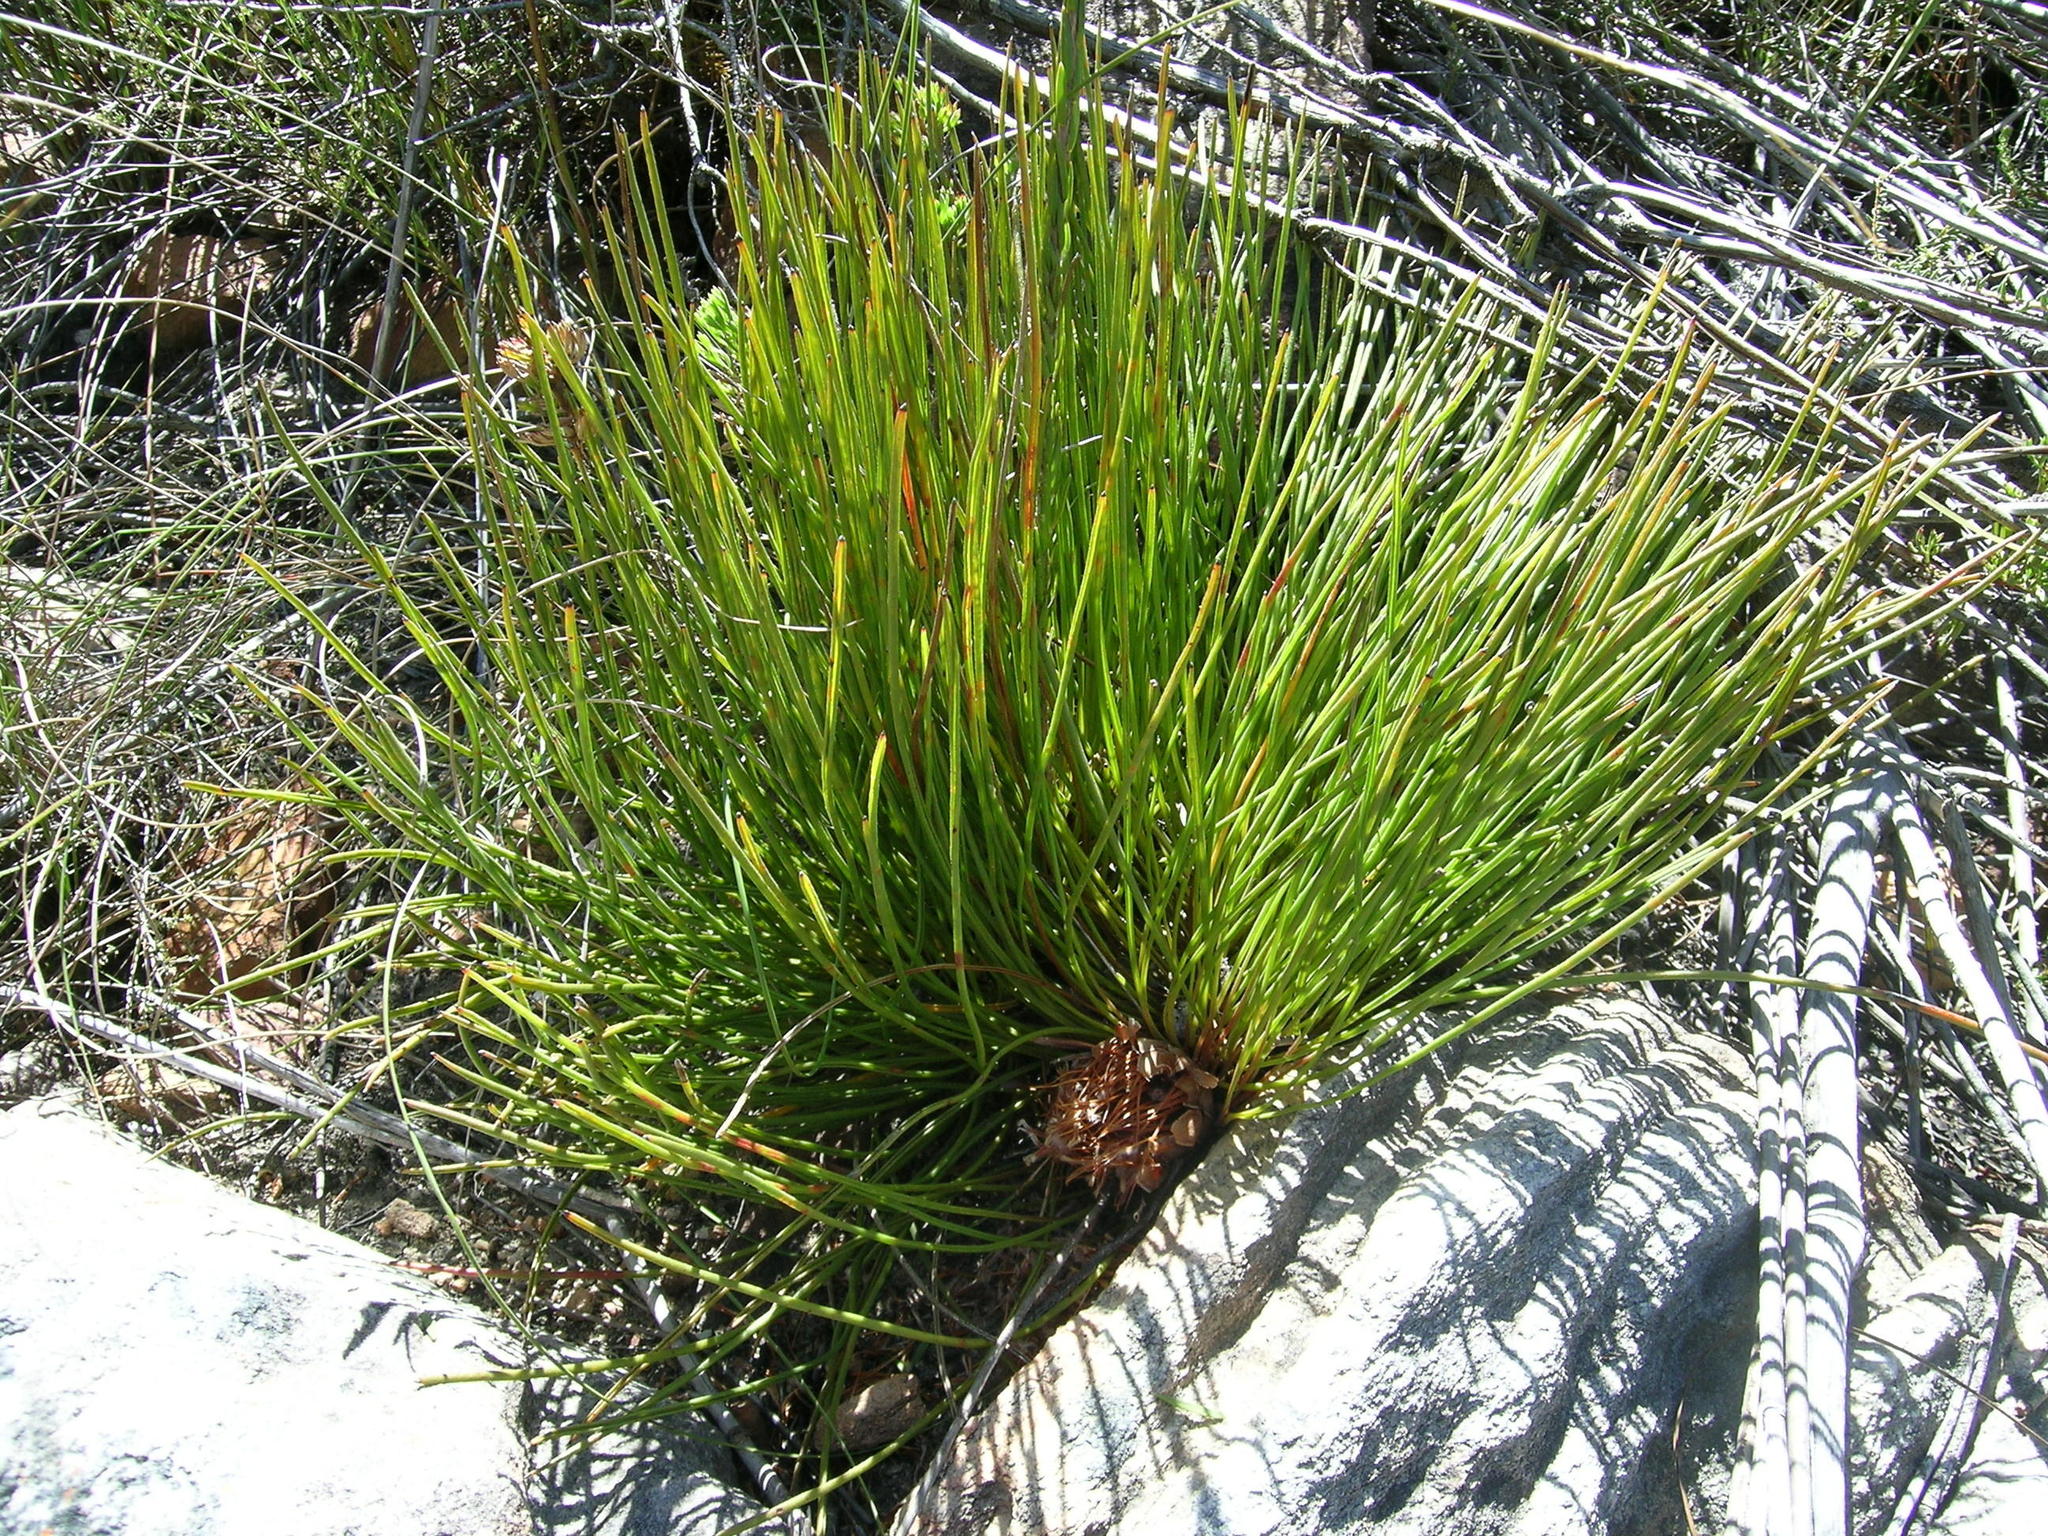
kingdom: Plantae
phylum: Tracheophyta
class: Magnoliopsida
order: Proteales
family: Proteaceae
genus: Protea
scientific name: Protea piscina
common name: Visgat sugarbush
